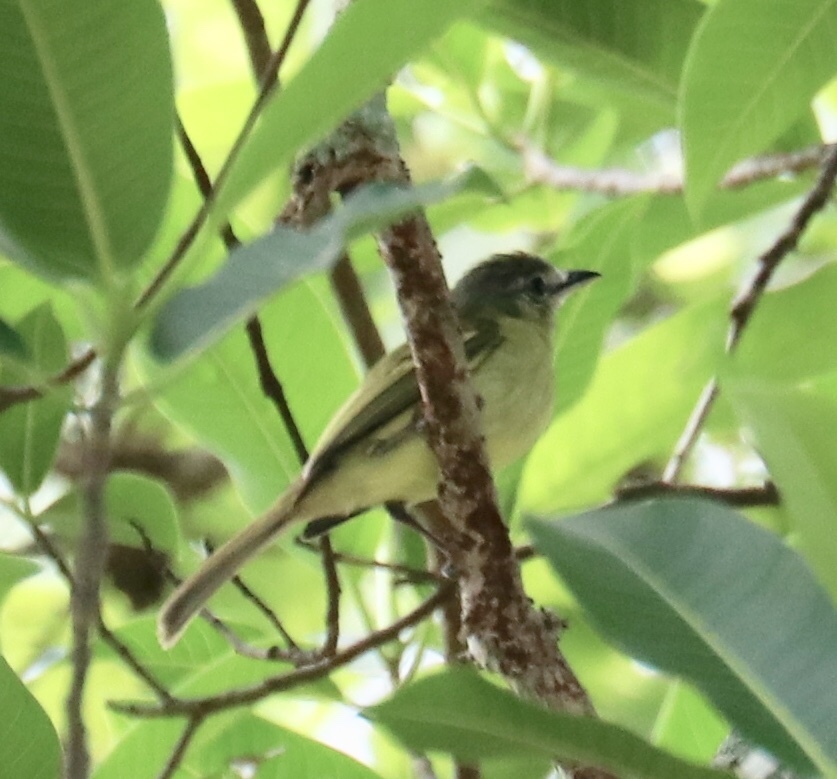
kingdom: Animalia
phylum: Chordata
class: Aves
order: Passeriformes
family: Tyrannidae
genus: Tolmomyias
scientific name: Tolmomyias sulphurescens
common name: Yellow-olive flycatcher
